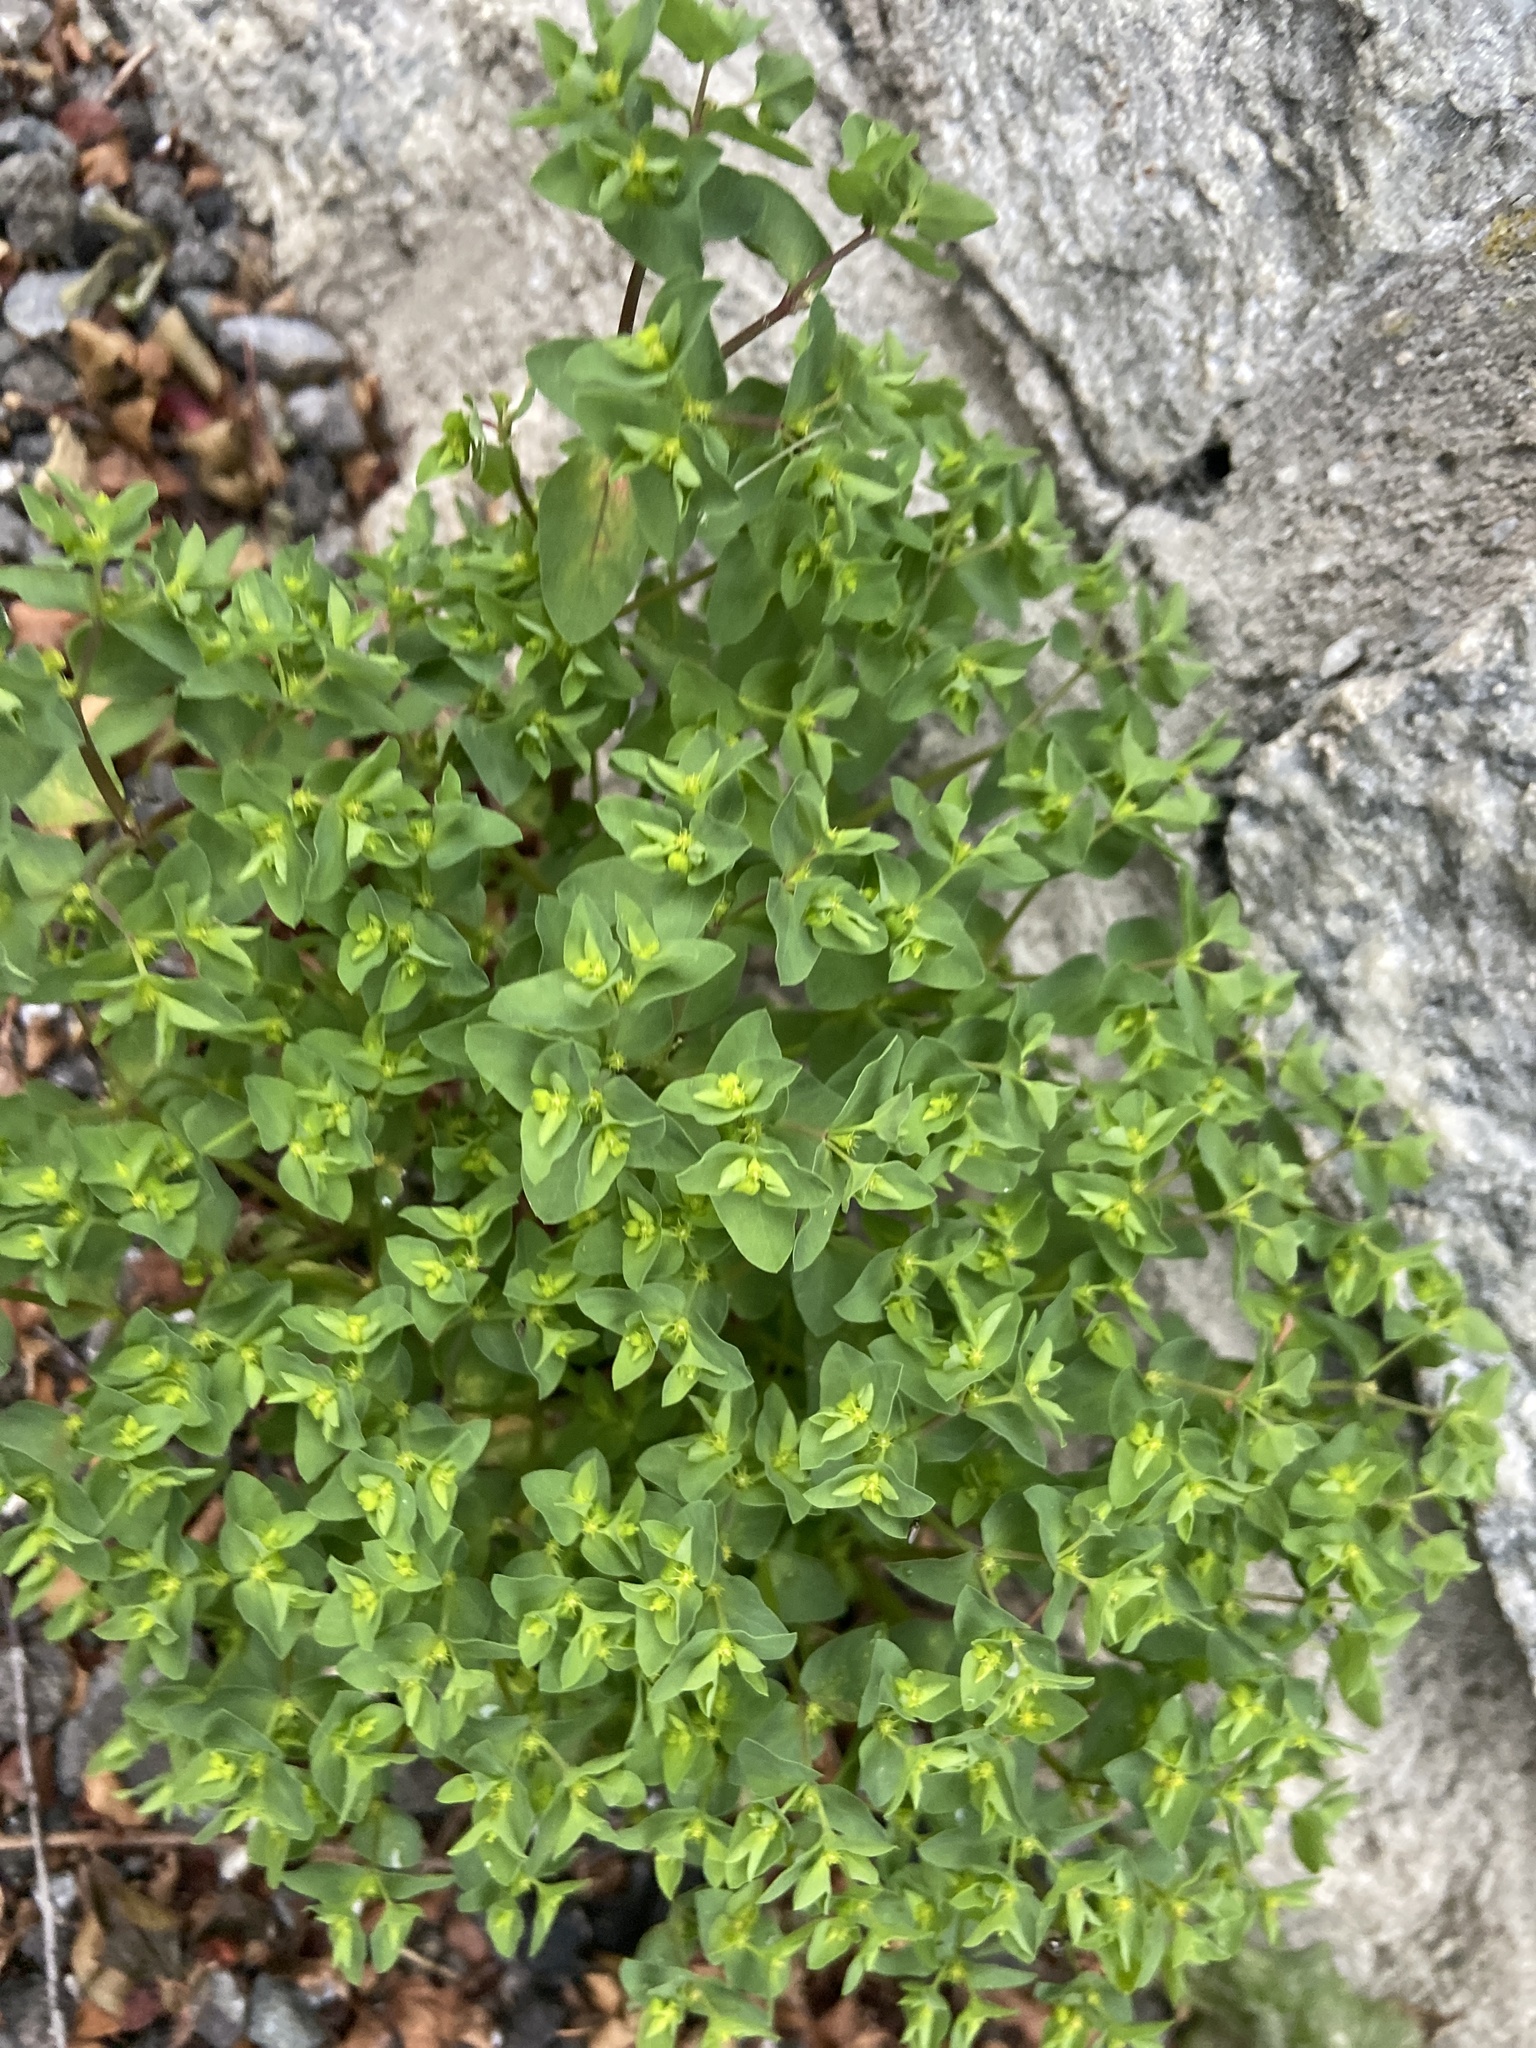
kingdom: Plantae
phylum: Tracheophyta
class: Magnoliopsida
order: Malpighiales
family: Euphorbiaceae
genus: Euphorbia
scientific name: Euphorbia peplus
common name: Petty spurge
